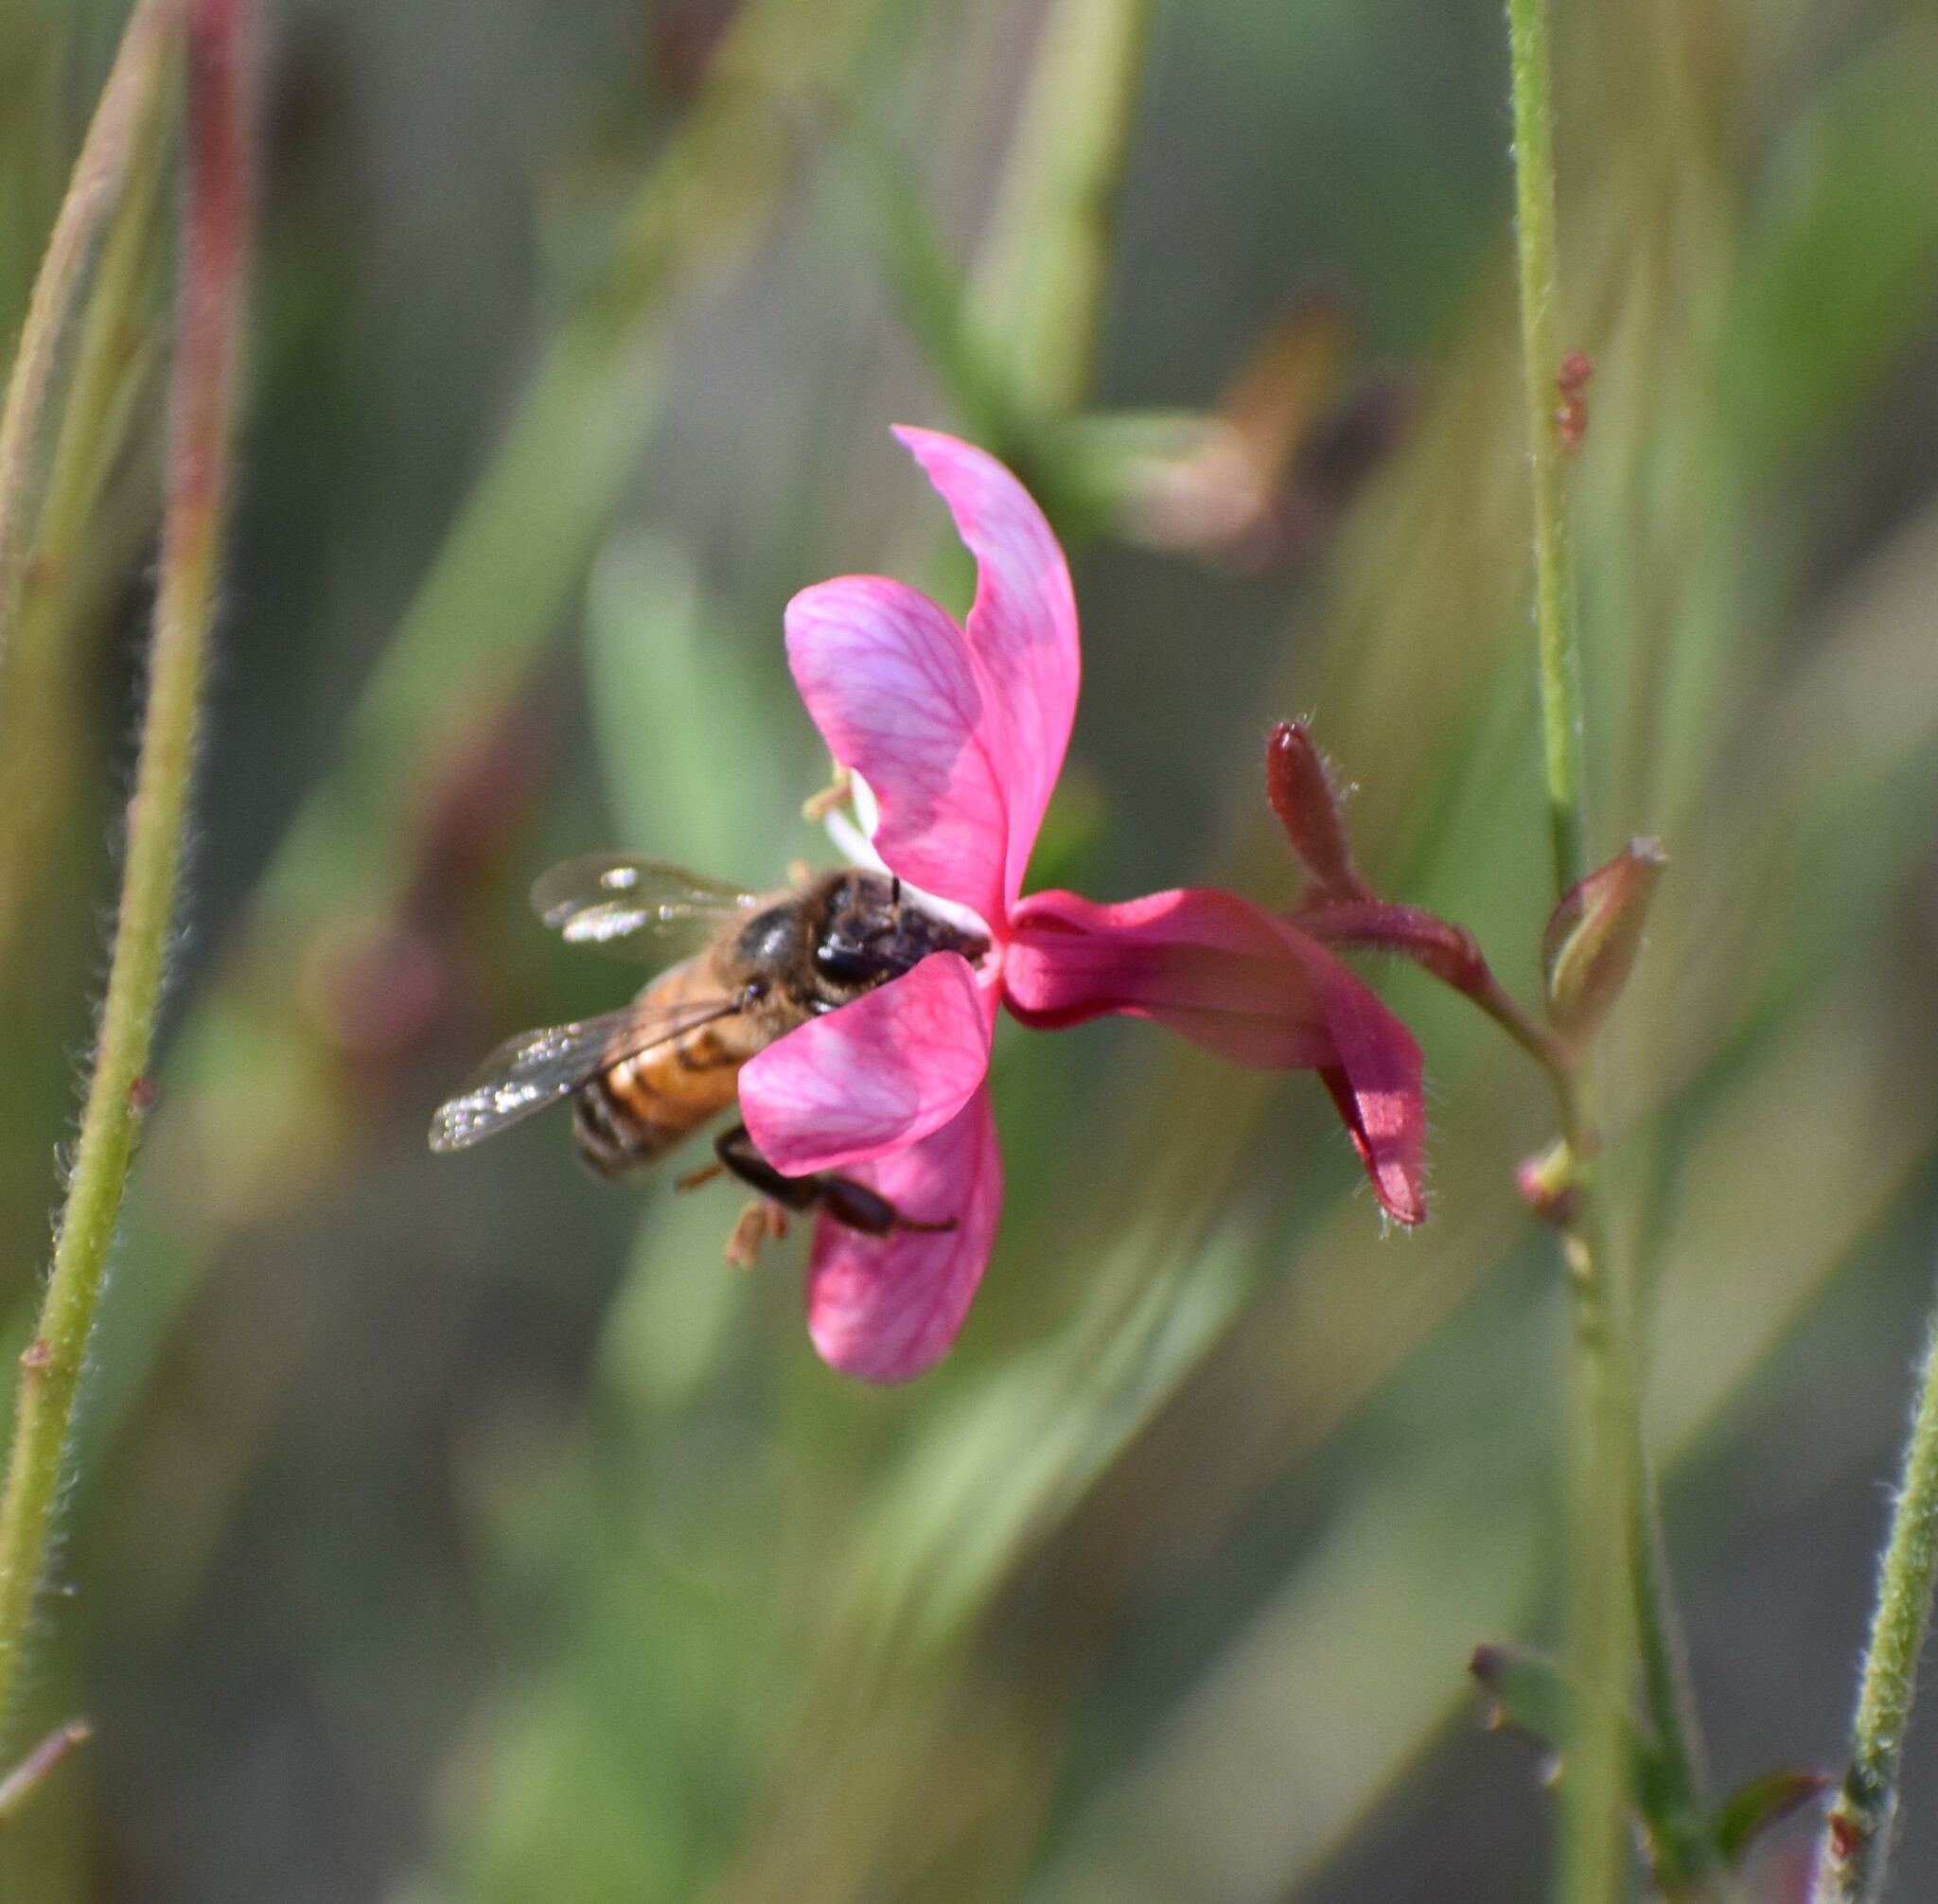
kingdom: Animalia
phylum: Arthropoda
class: Insecta
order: Hymenoptera
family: Apidae
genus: Apis
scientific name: Apis mellifera
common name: Honey bee
